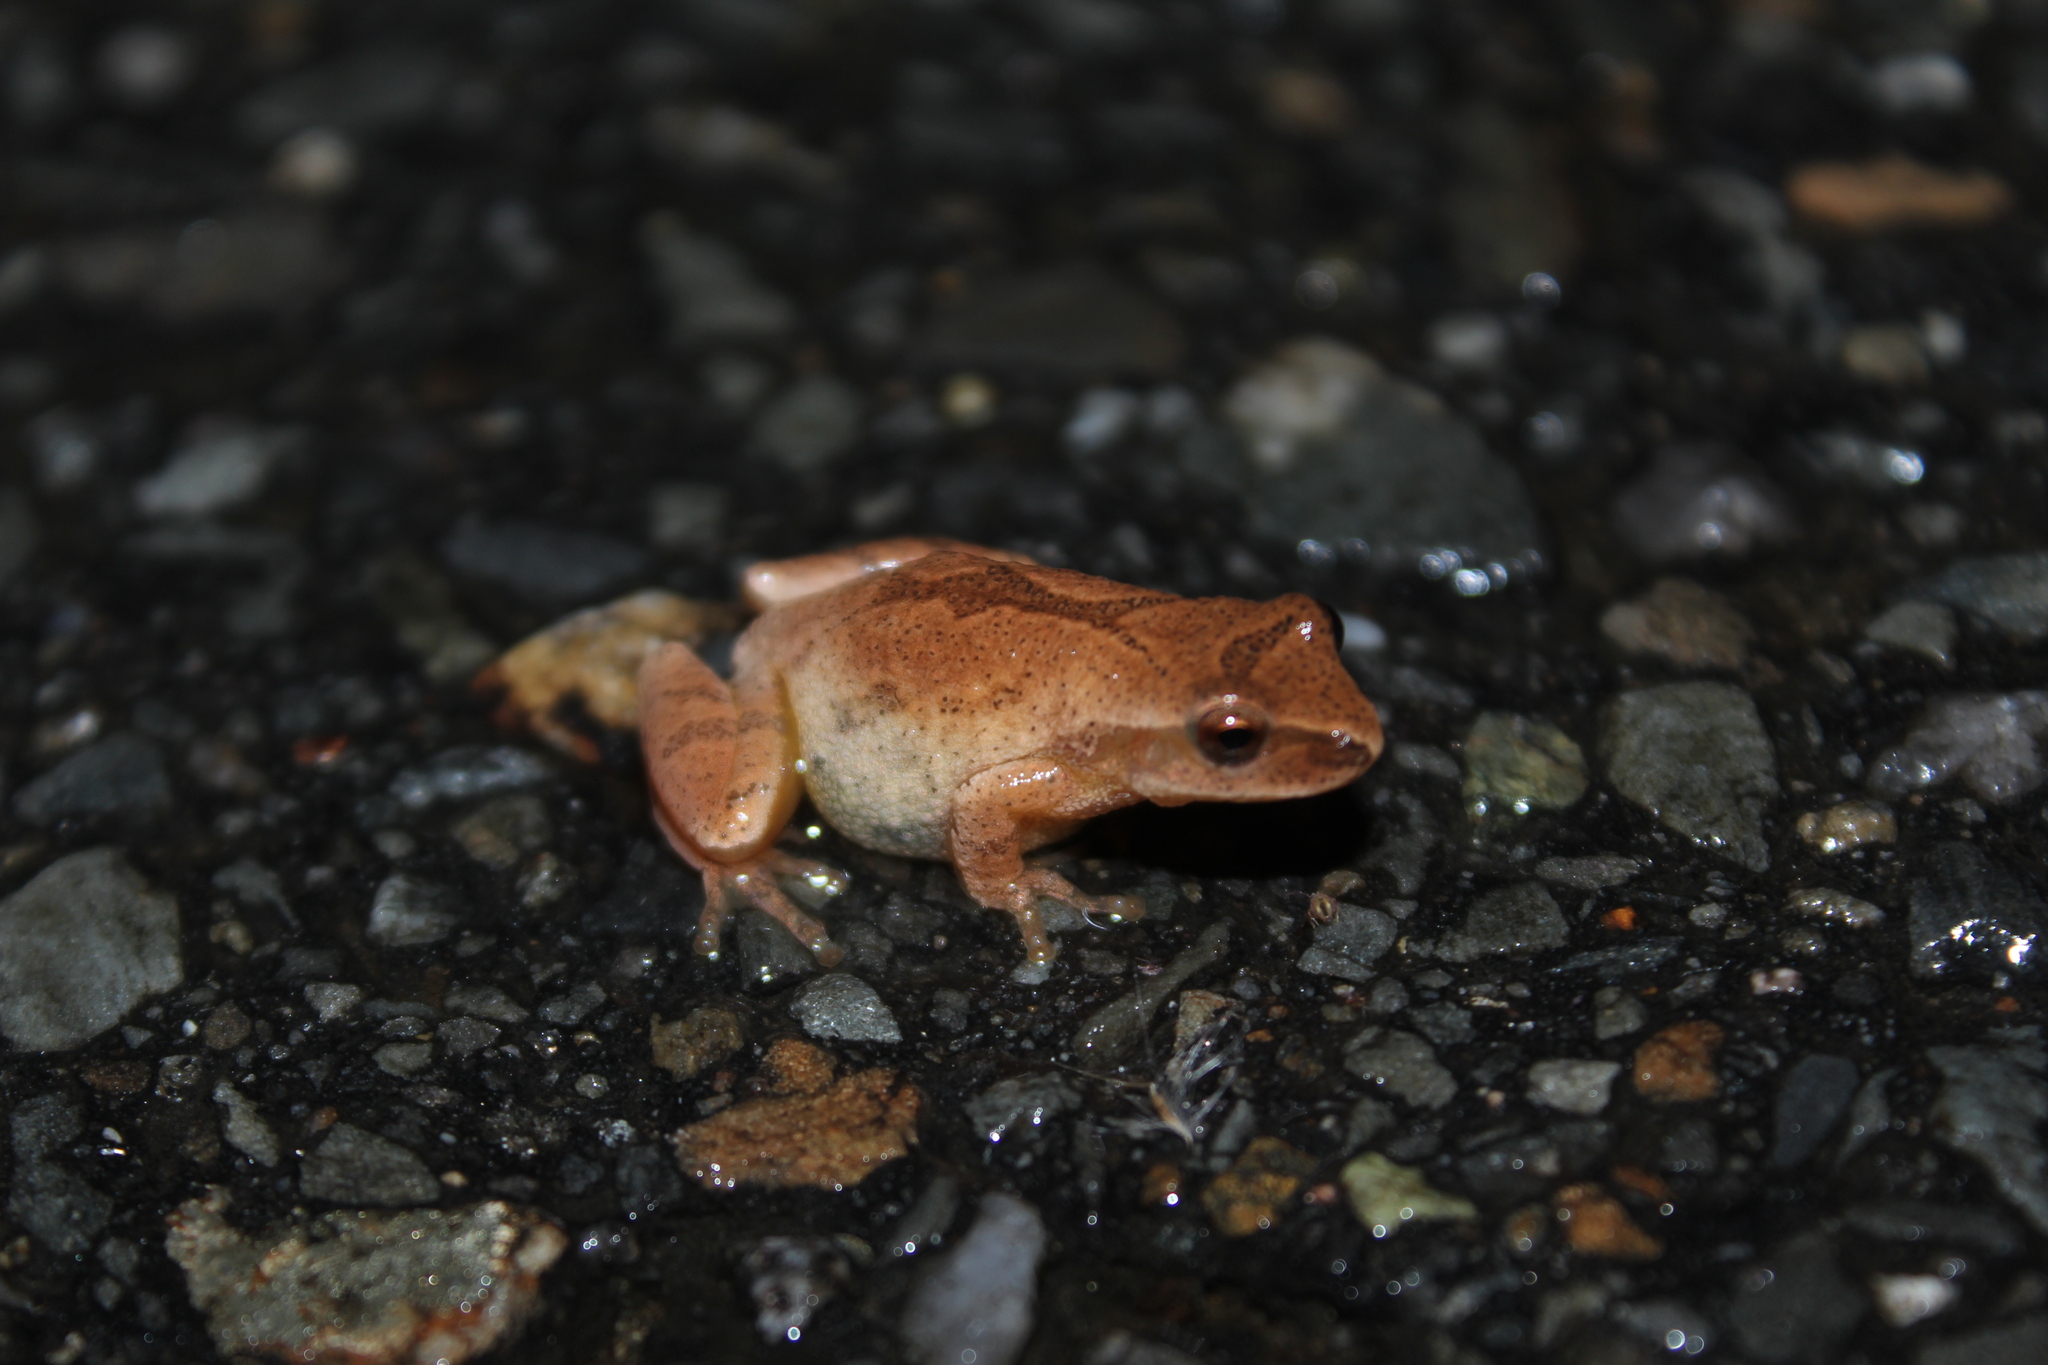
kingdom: Animalia
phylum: Chordata
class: Amphibia
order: Anura
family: Hylidae
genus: Pseudacris
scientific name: Pseudacris crucifer
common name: Spring peeper
